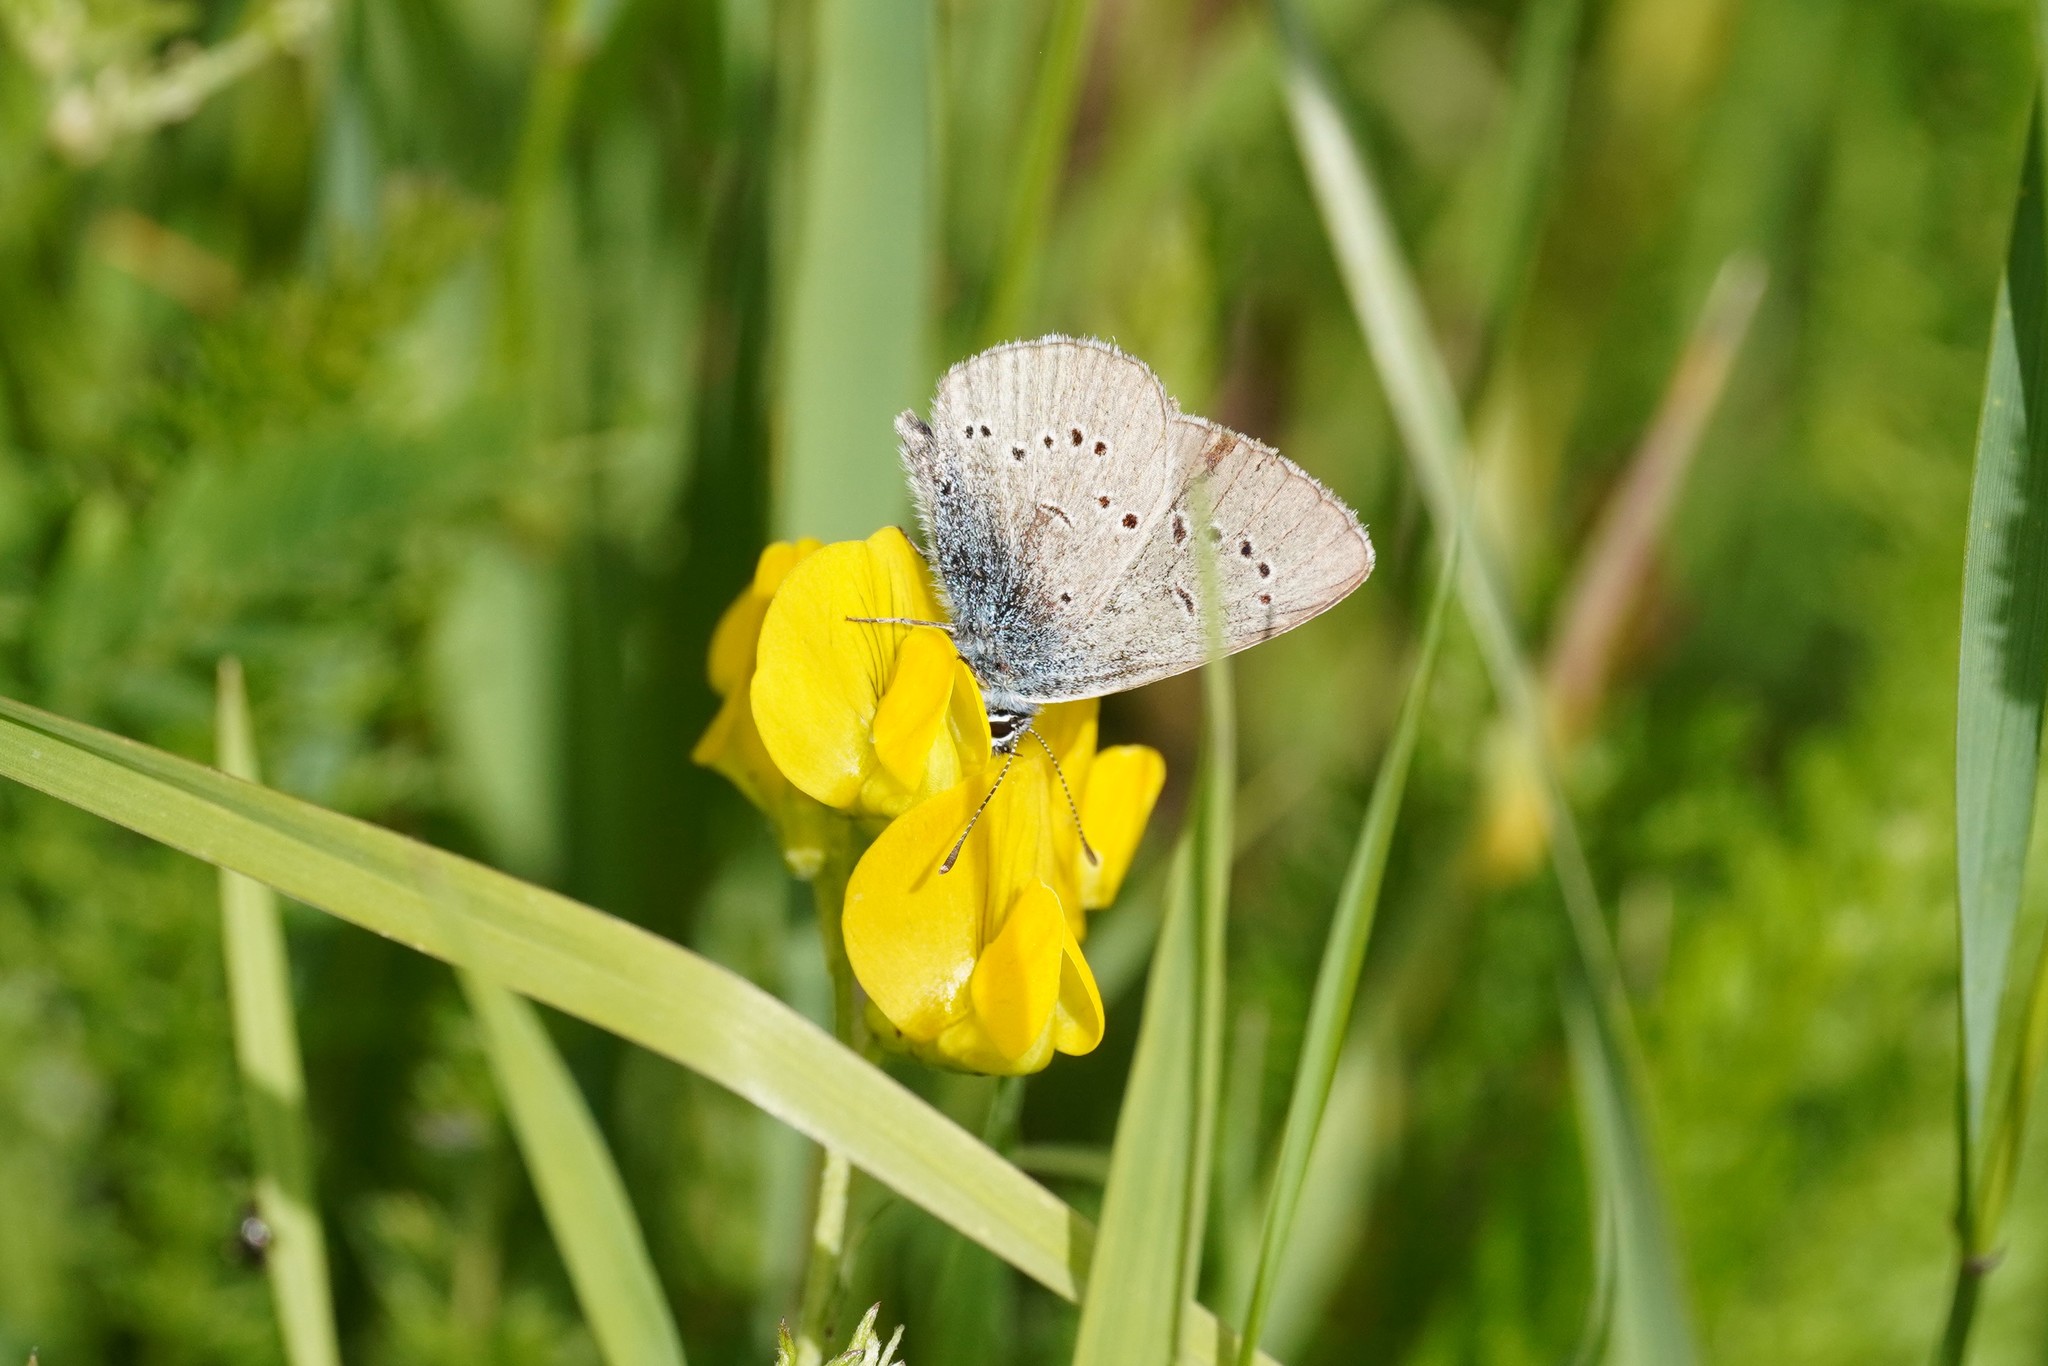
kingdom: Animalia
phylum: Arthropoda
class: Insecta
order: Lepidoptera
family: Lycaenidae
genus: Cyaniris
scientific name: Cyaniris semiargus
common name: Mazarine blue
